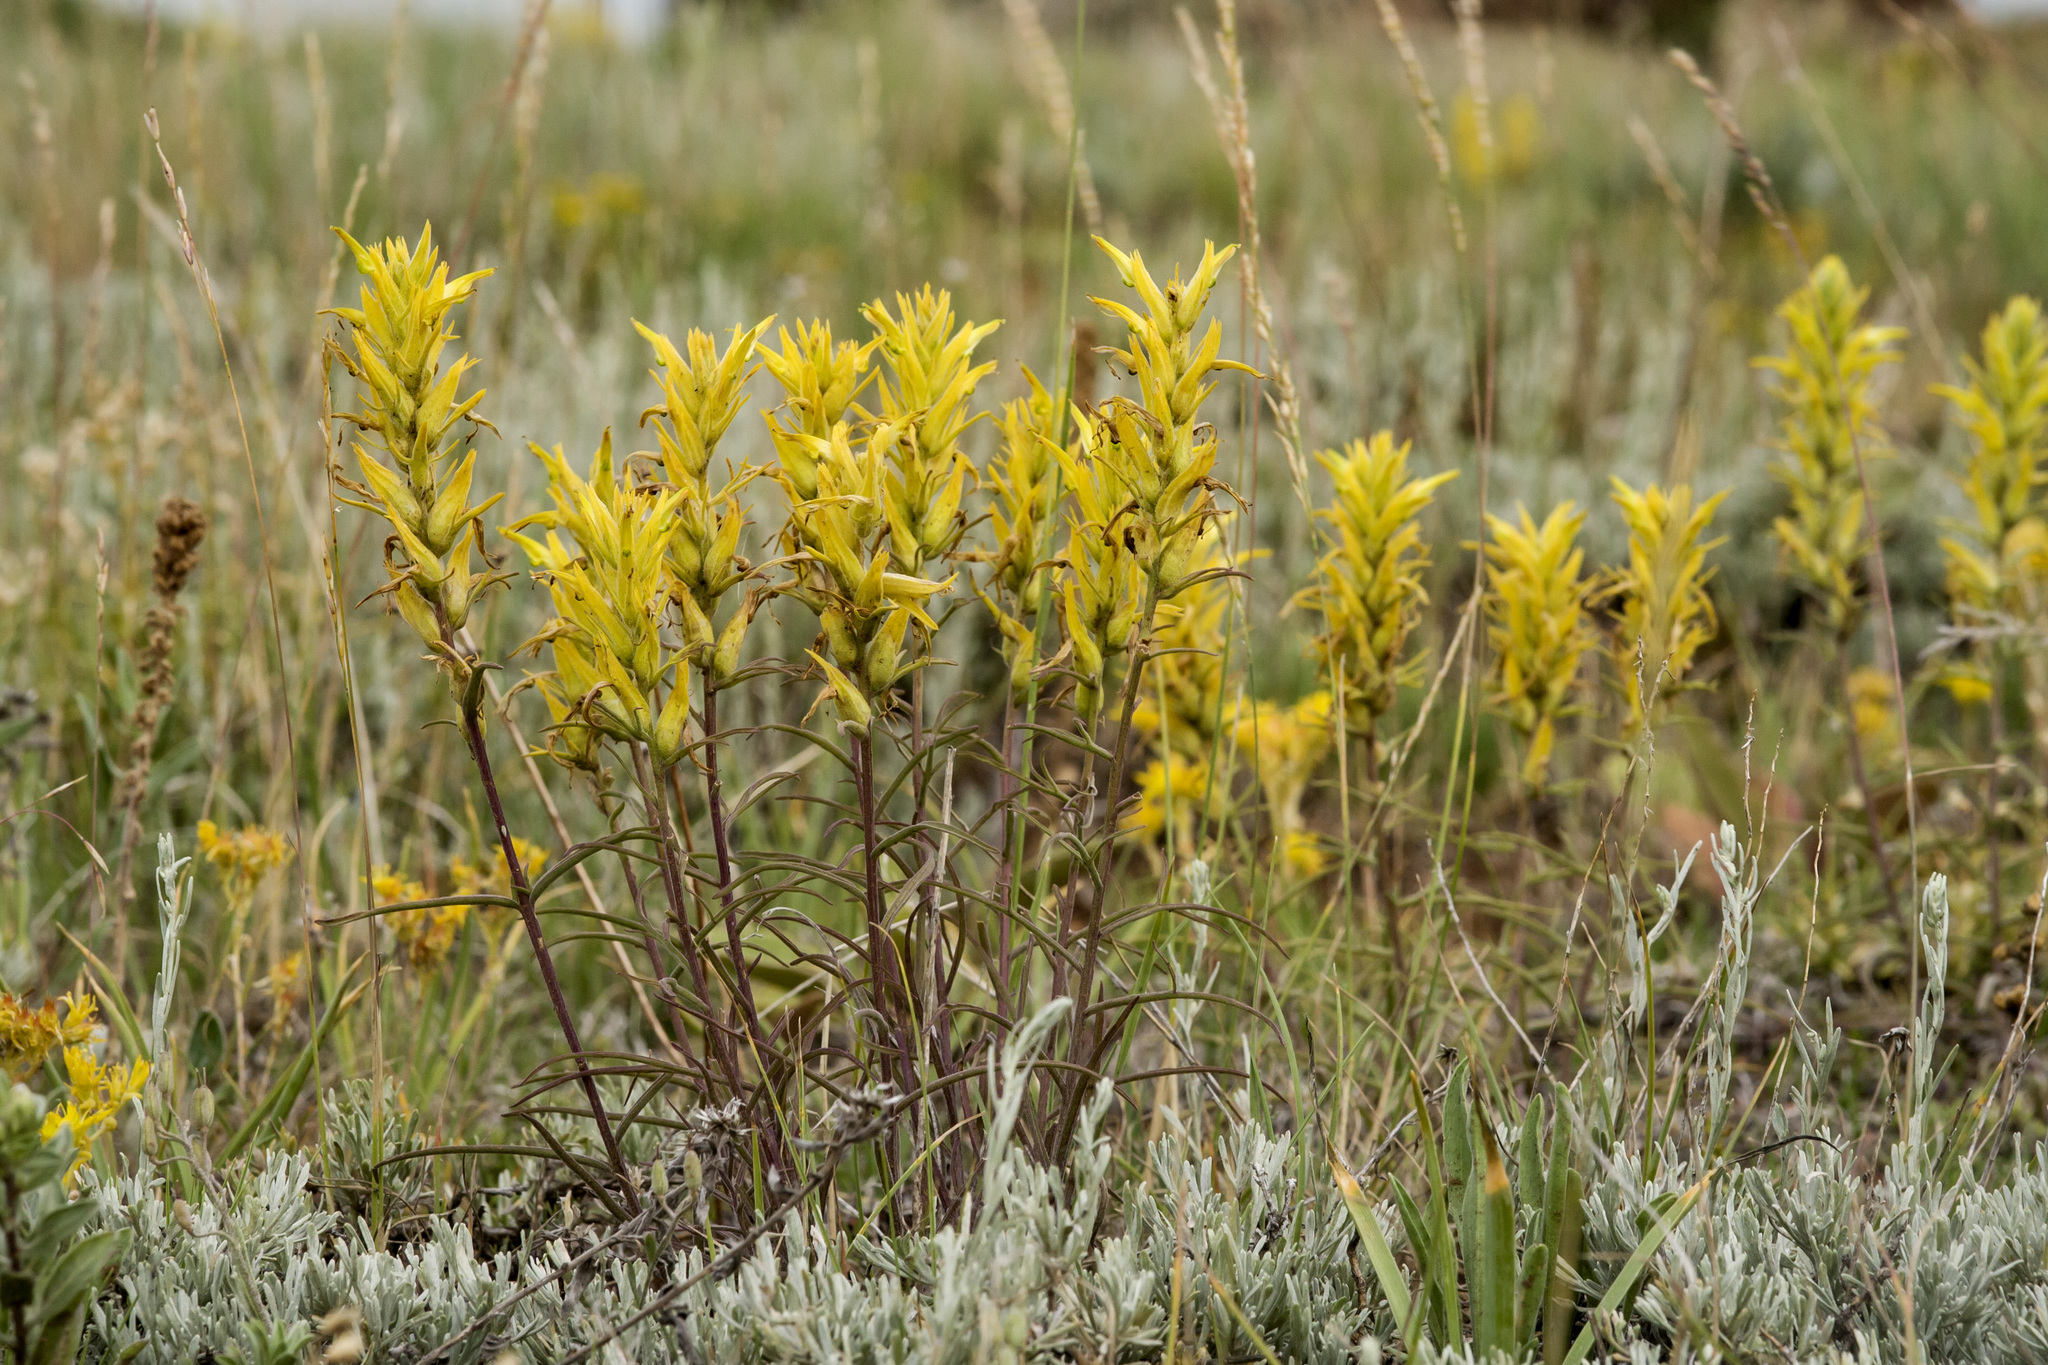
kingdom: Plantae
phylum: Tracheophyta
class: Magnoliopsida
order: Lamiales
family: Orobanchaceae
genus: Castilleja
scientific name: Castilleja flava
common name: Yellow paintbrush
